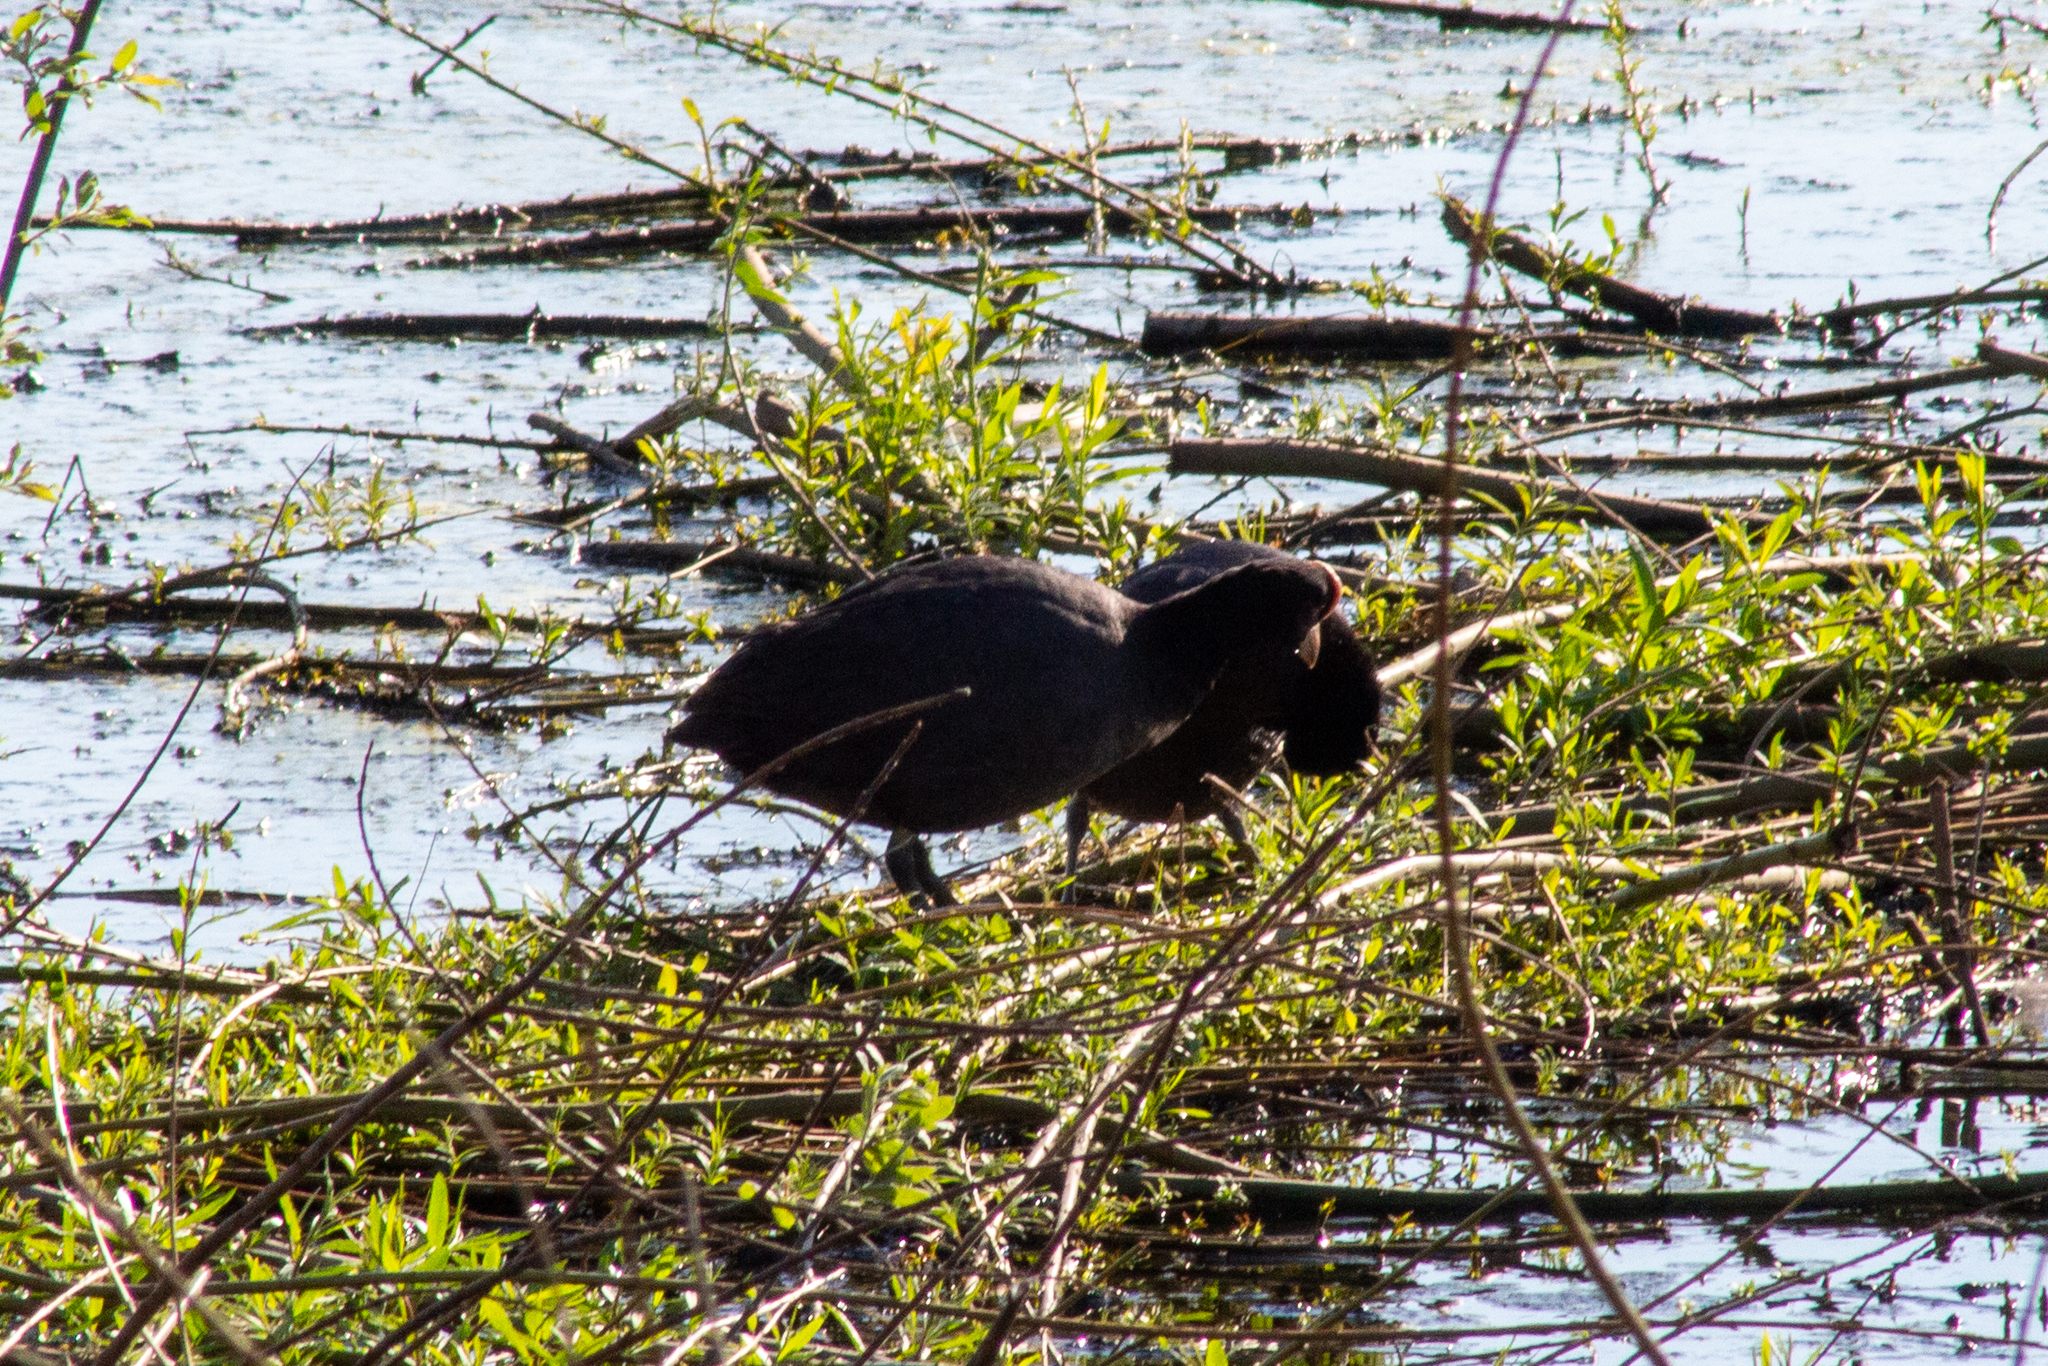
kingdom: Animalia
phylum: Chordata
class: Aves
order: Gruiformes
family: Rallidae
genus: Fulica
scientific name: Fulica atra
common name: Eurasian coot
